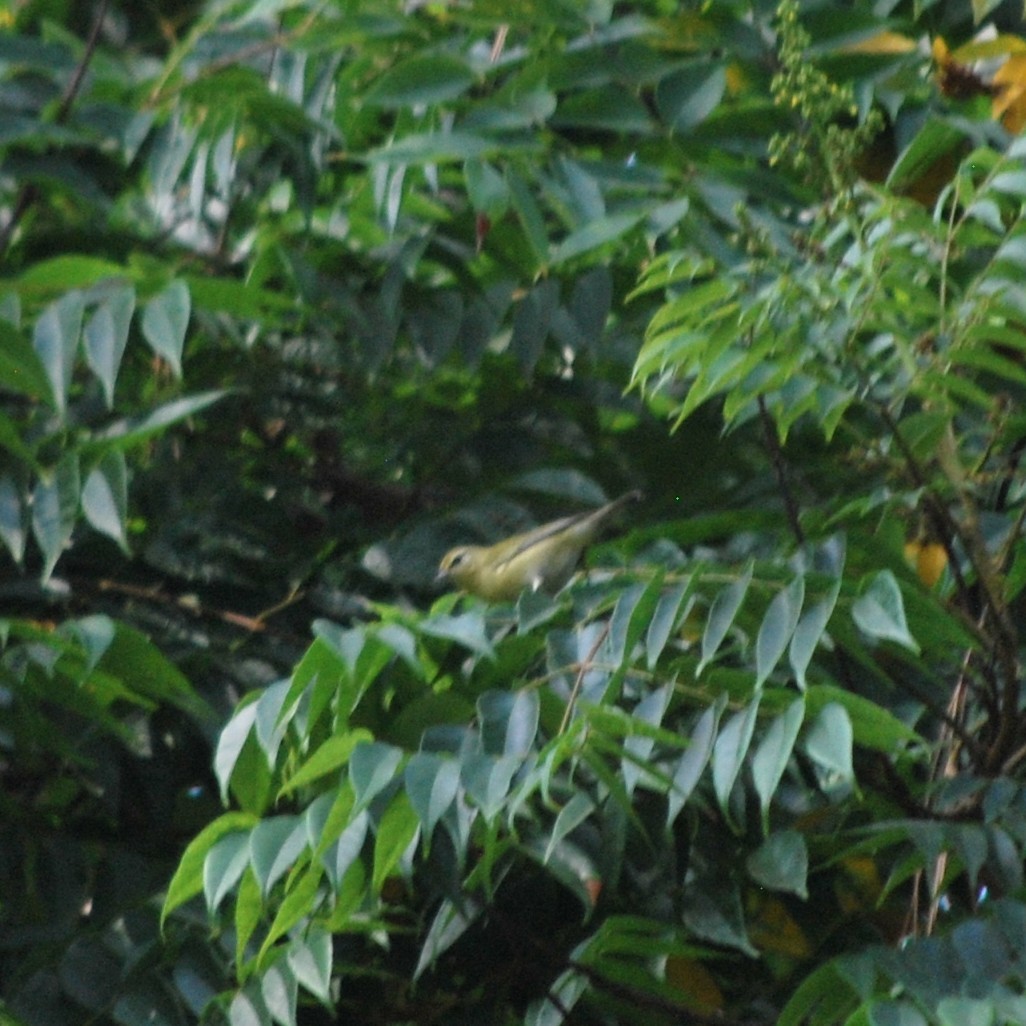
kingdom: Animalia
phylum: Chordata
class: Aves
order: Passeriformes
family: Parulidae
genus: Leiothlypis
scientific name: Leiothlypis peregrina
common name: Tennessee warbler
